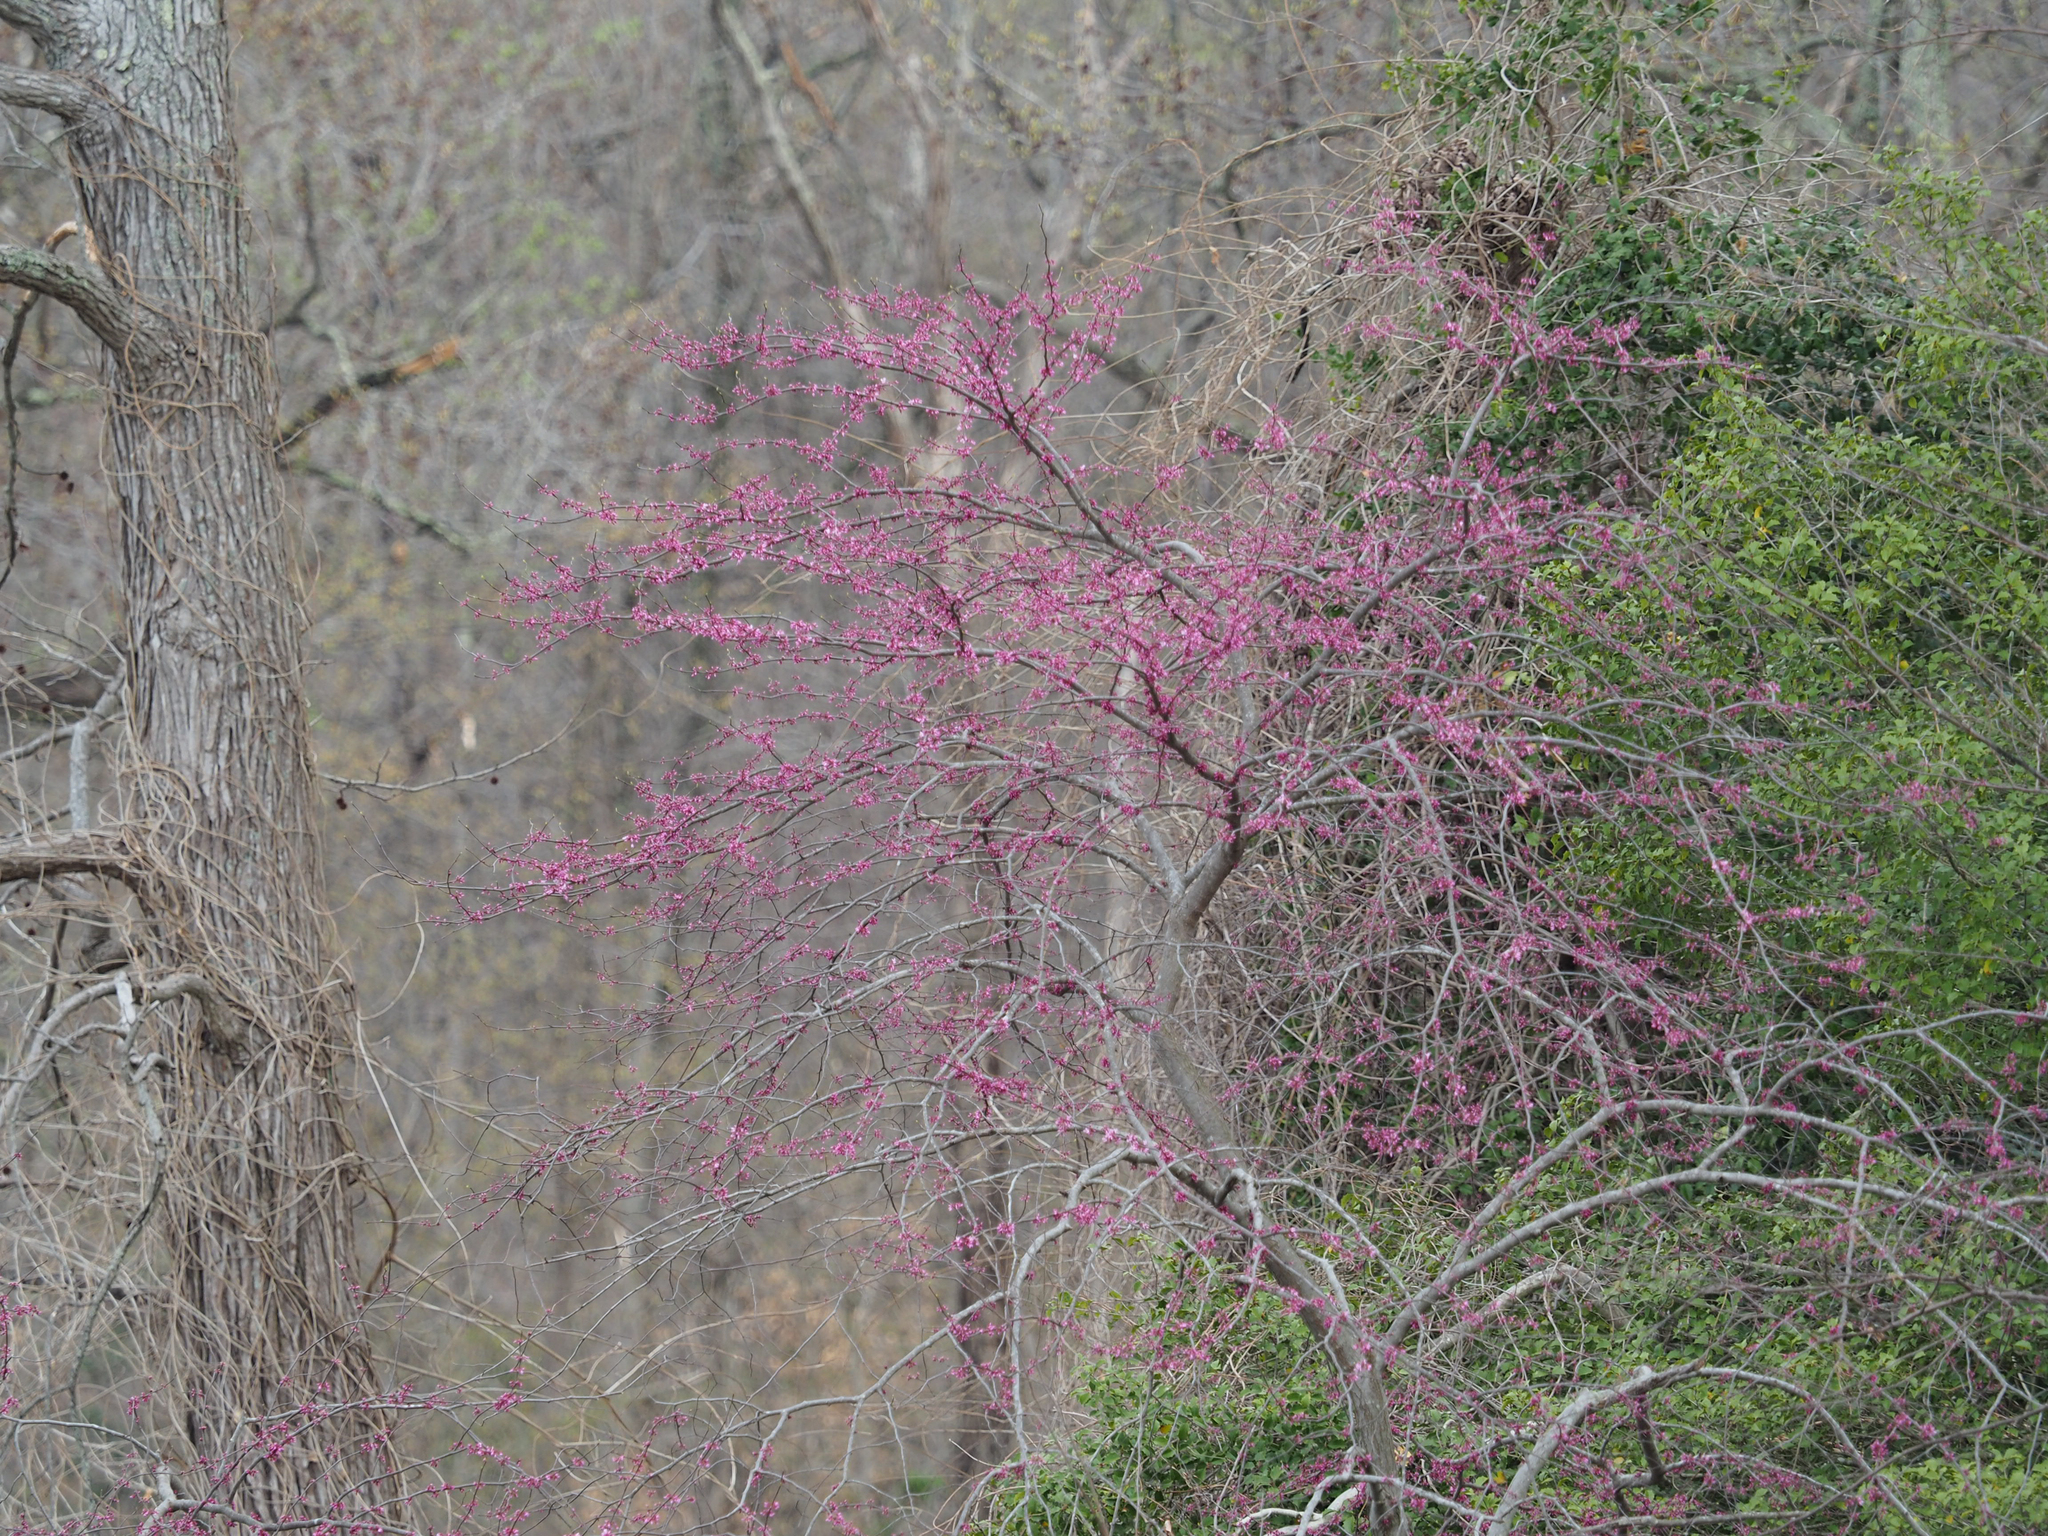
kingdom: Plantae
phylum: Tracheophyta
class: Magnoliopsida
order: Fabales
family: Fabaceae
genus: Cercis
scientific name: Cercis canadensis
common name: Eastern redbud
